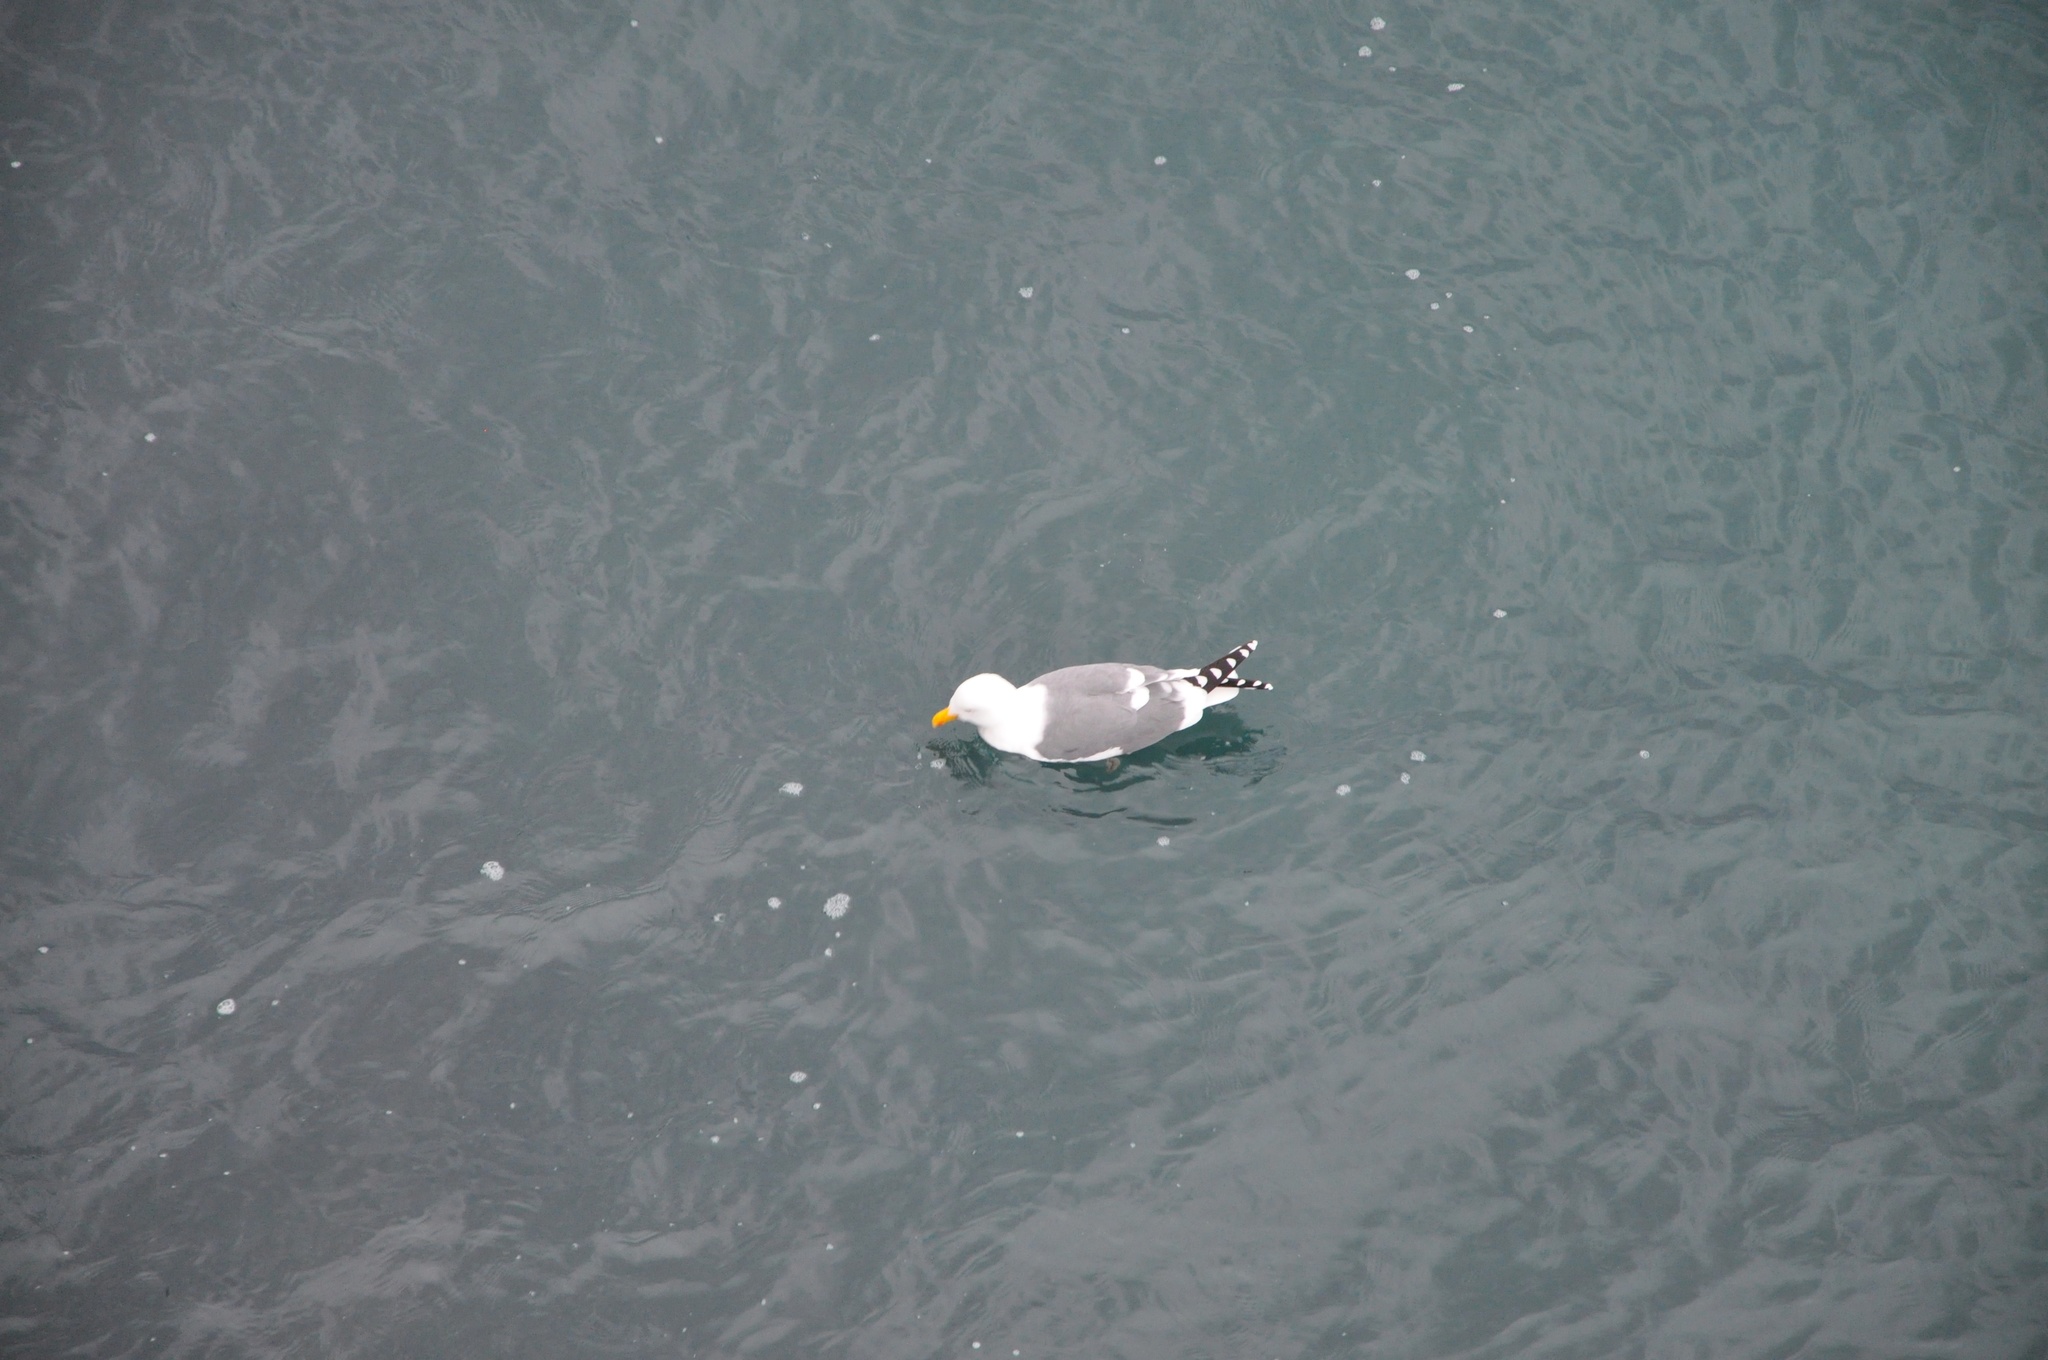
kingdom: Animalia
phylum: Chordata
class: Aves
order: Charadriiformes
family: Laridae
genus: Larus
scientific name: Larus occidentalis
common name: Western gull
